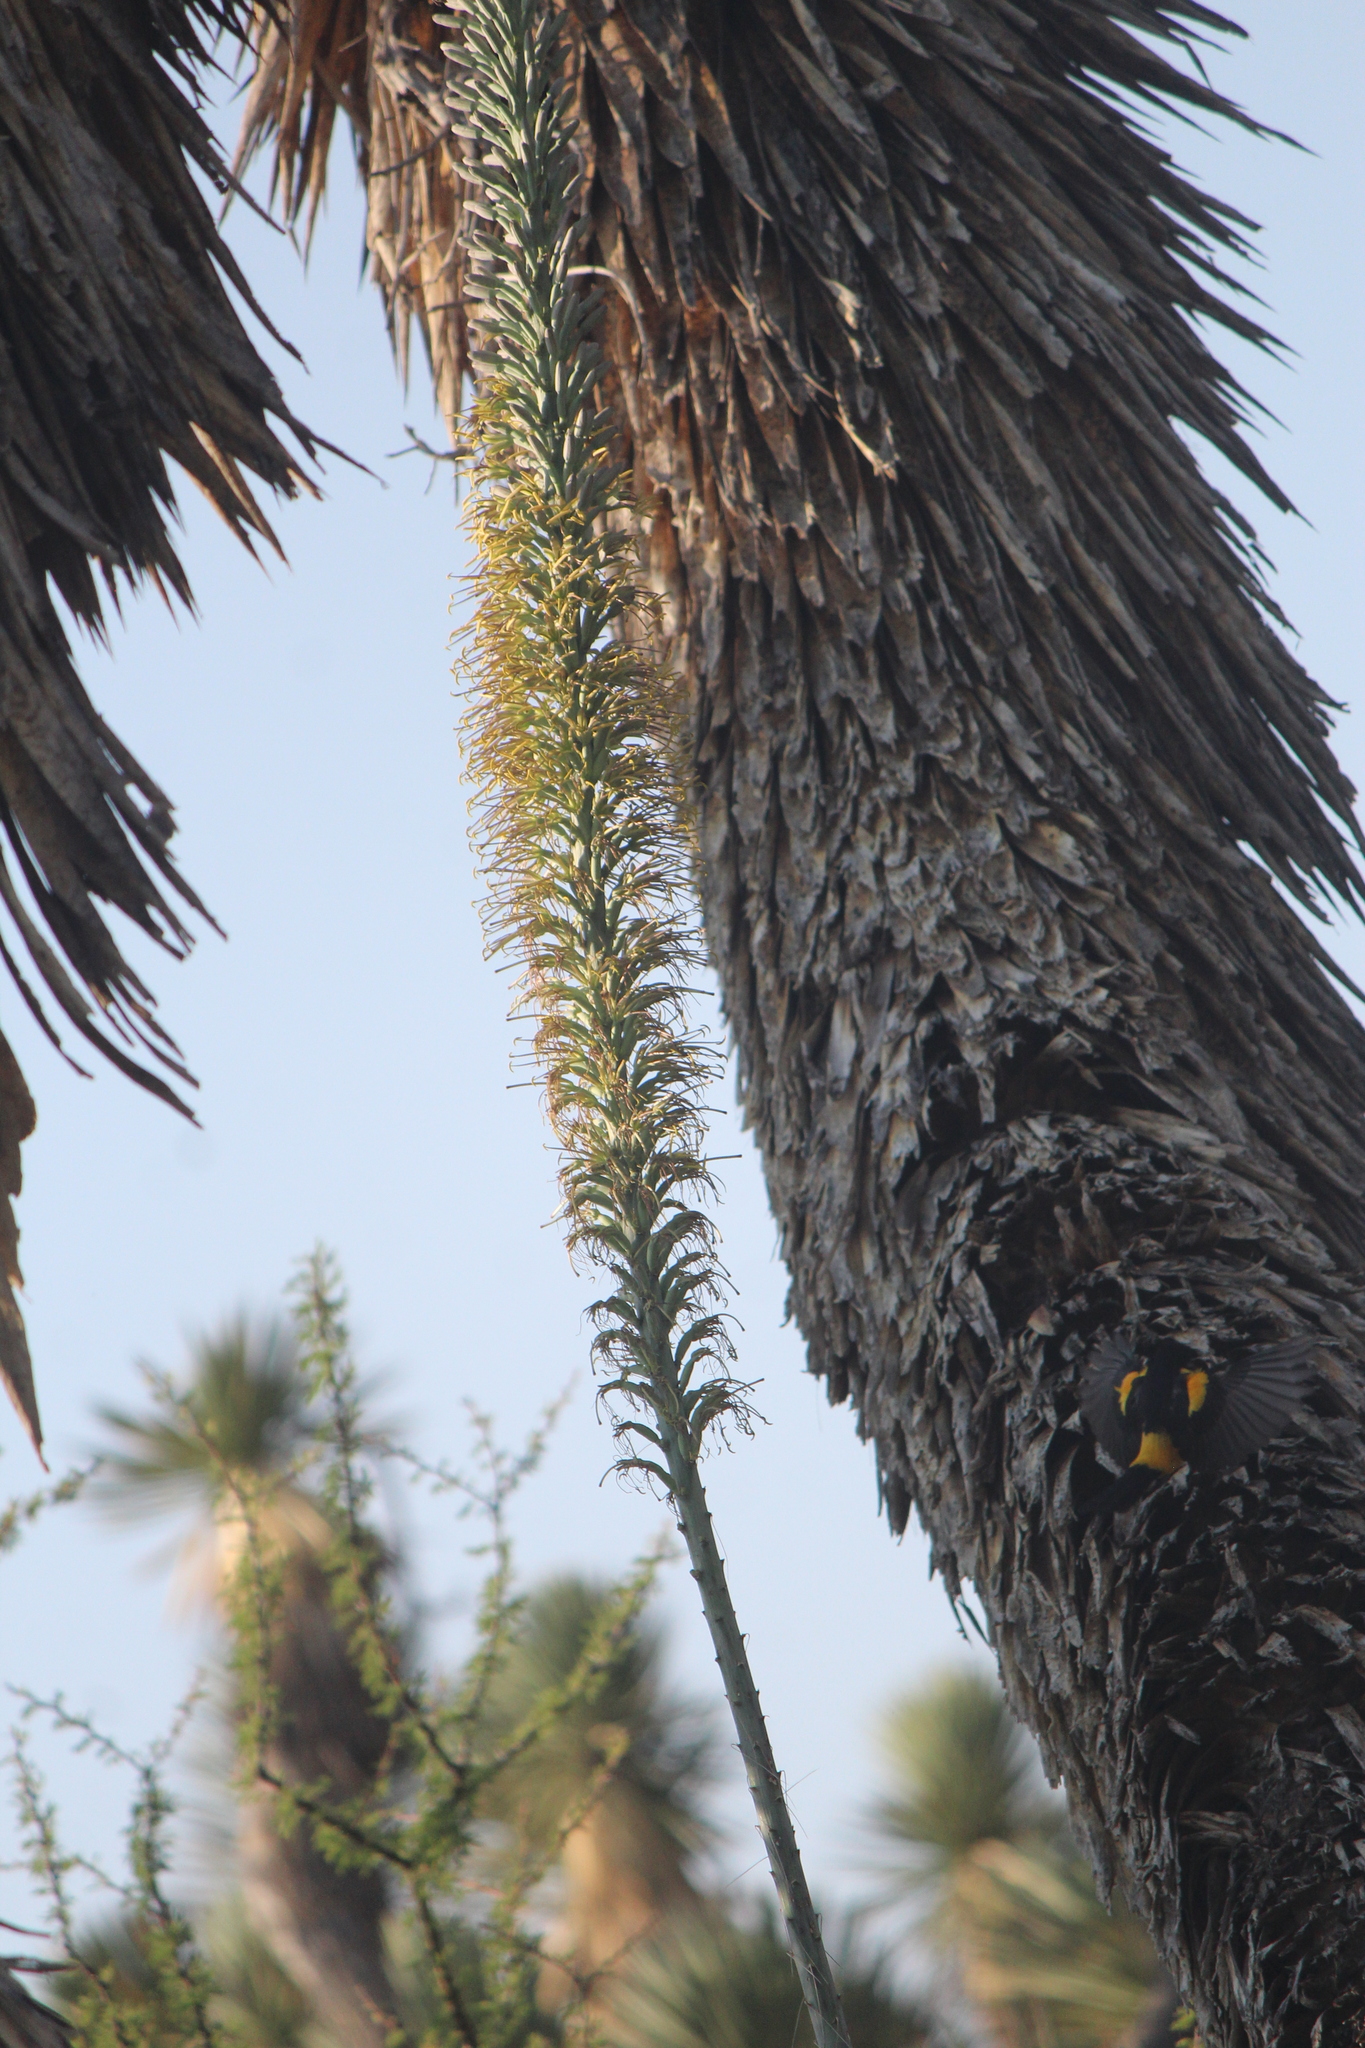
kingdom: Animalia
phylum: Chordata
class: Aves
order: Passeriformes
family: Icteridae
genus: Icterus
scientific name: Icterus wagleri
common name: Black-vented oriole
